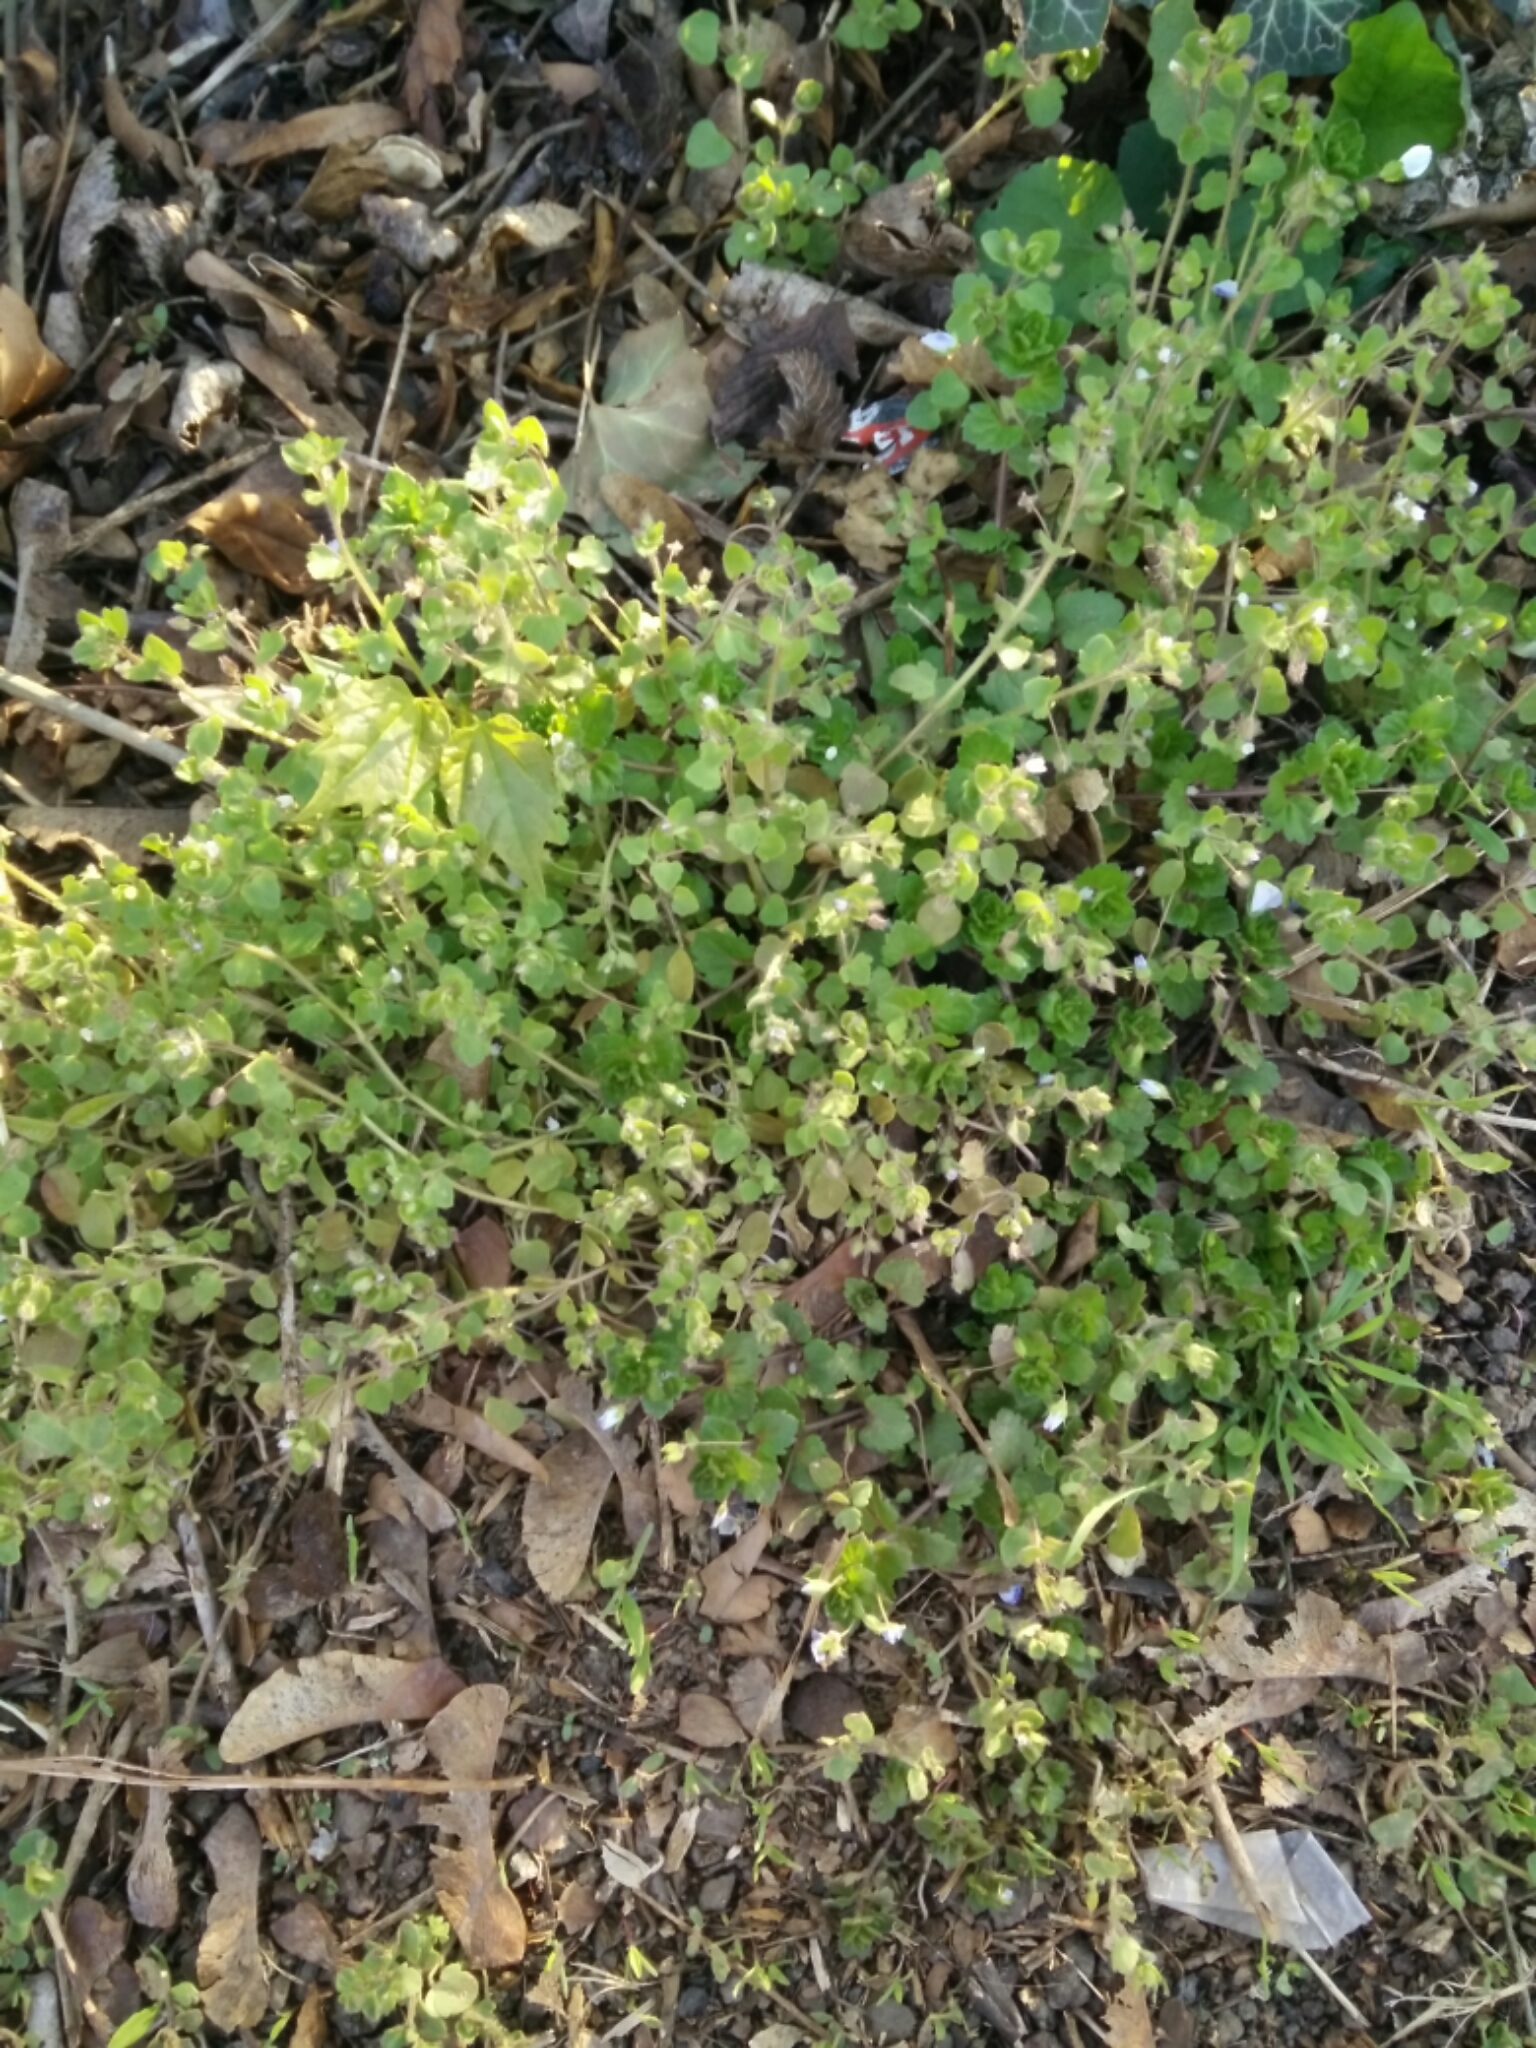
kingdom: Plantae
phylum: Tracheophyta
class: Magnoliopsida
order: Lamiales
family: Plantaginaceae
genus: Veronica
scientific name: Veronica hederifolia
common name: Ivy-leaved speedwell
